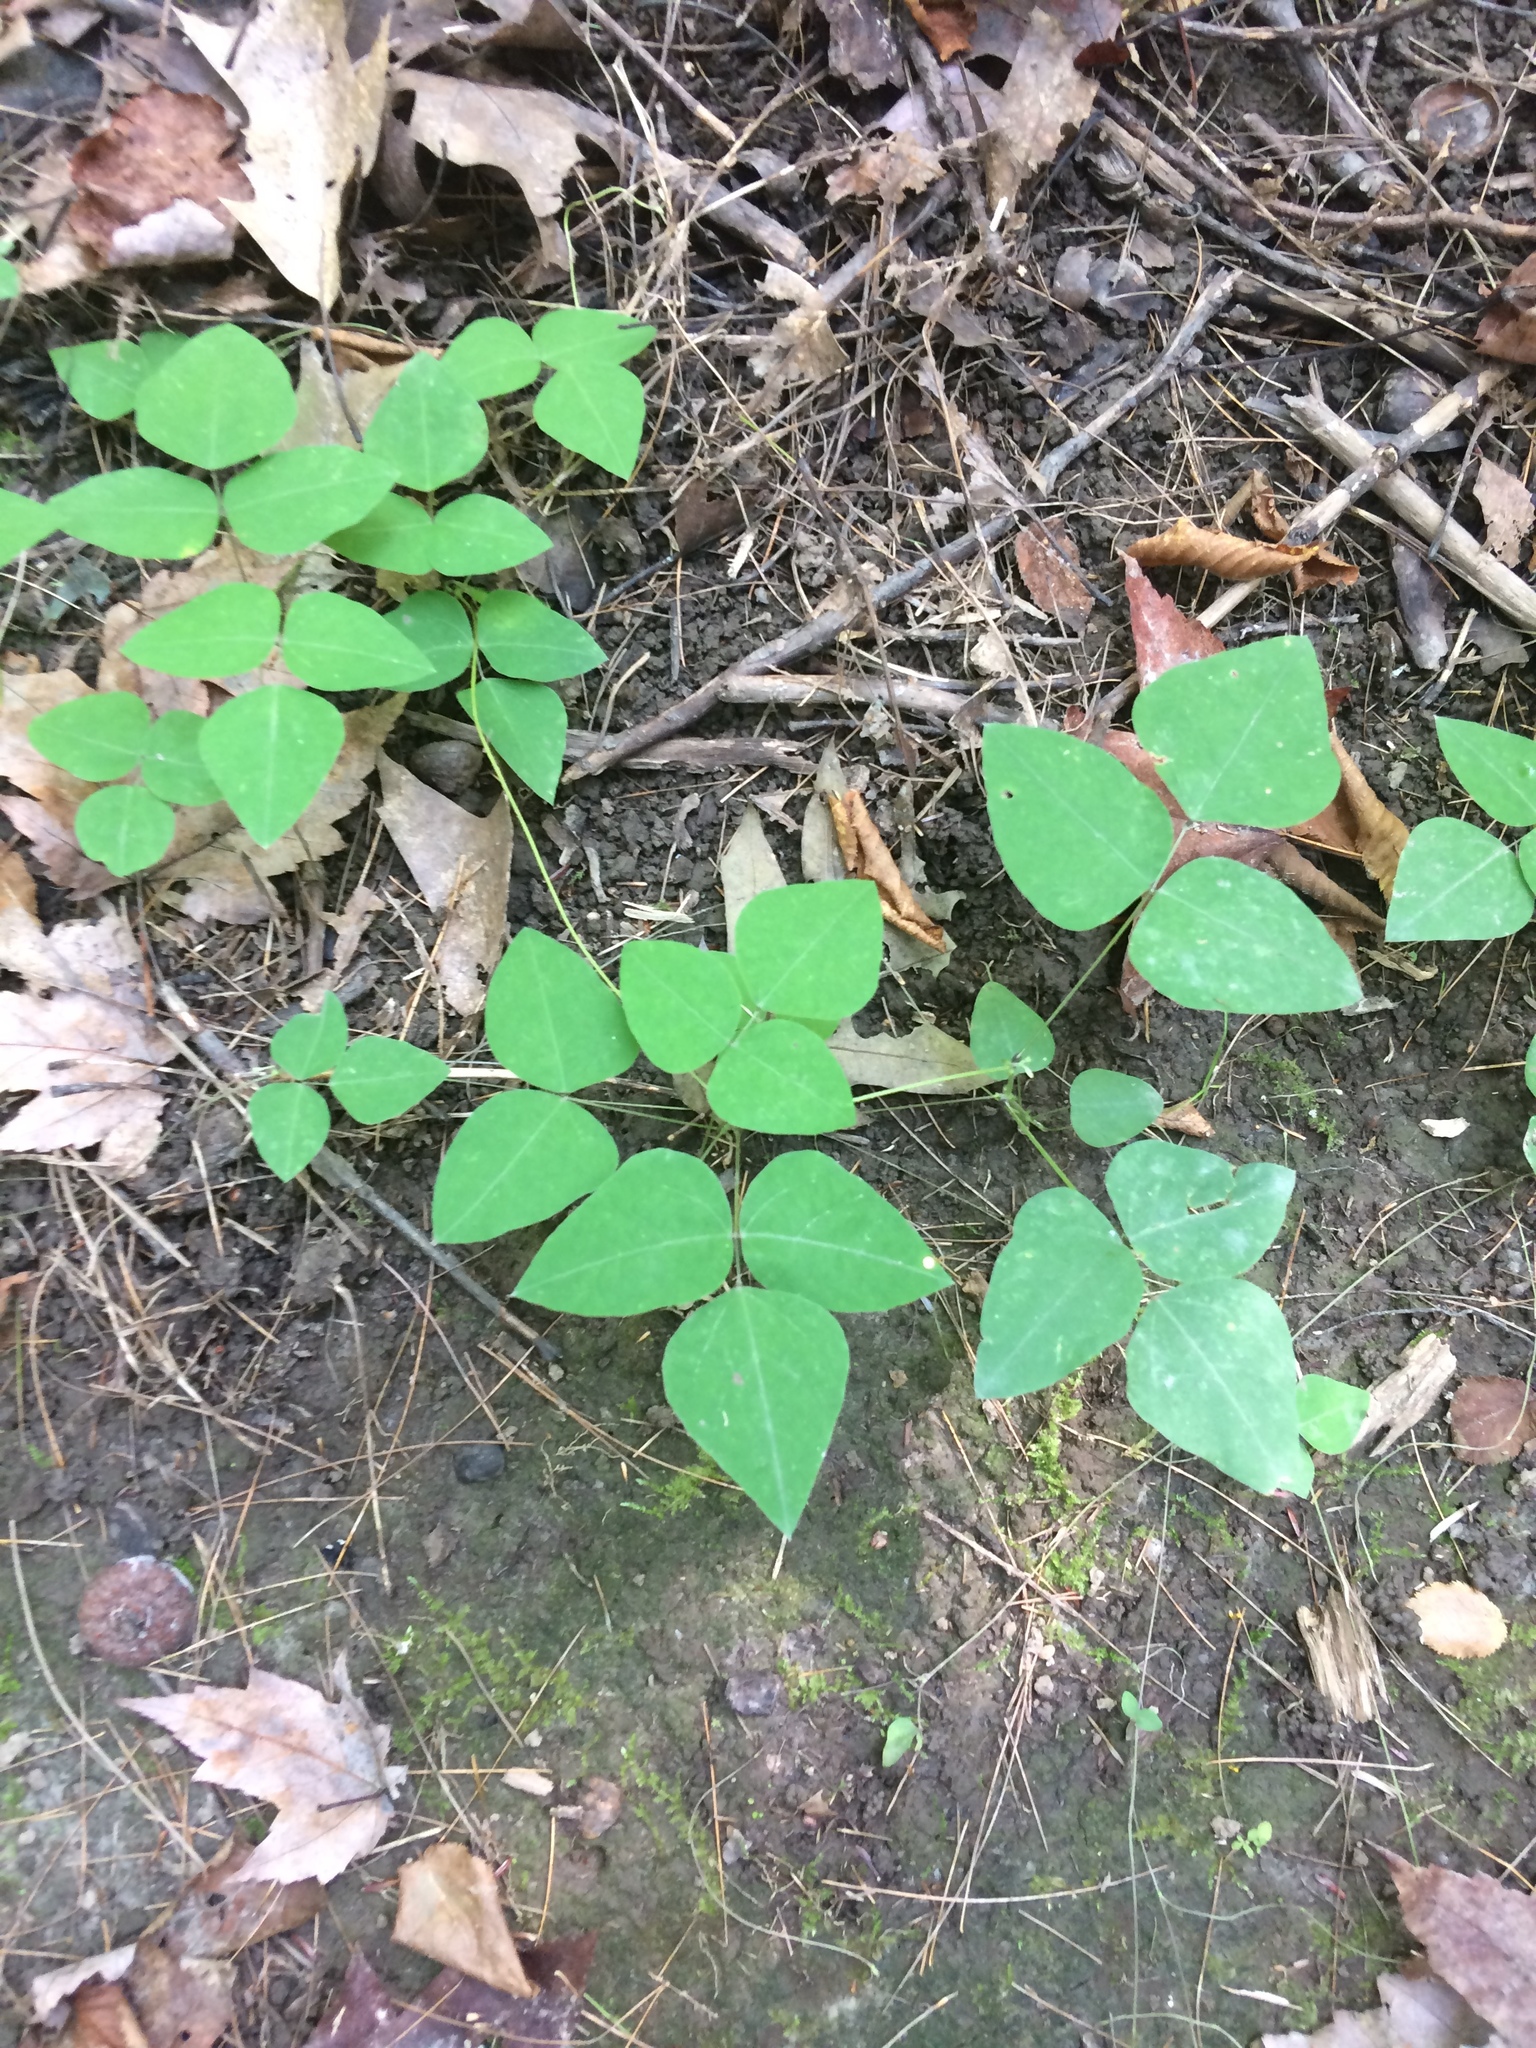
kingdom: Plantae
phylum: Tracheophyta
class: Magnoliopsida
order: Fabales
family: Fabaceae
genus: Amphicarpaea
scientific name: Amphicarpaea bracteata
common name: American hog peanut
